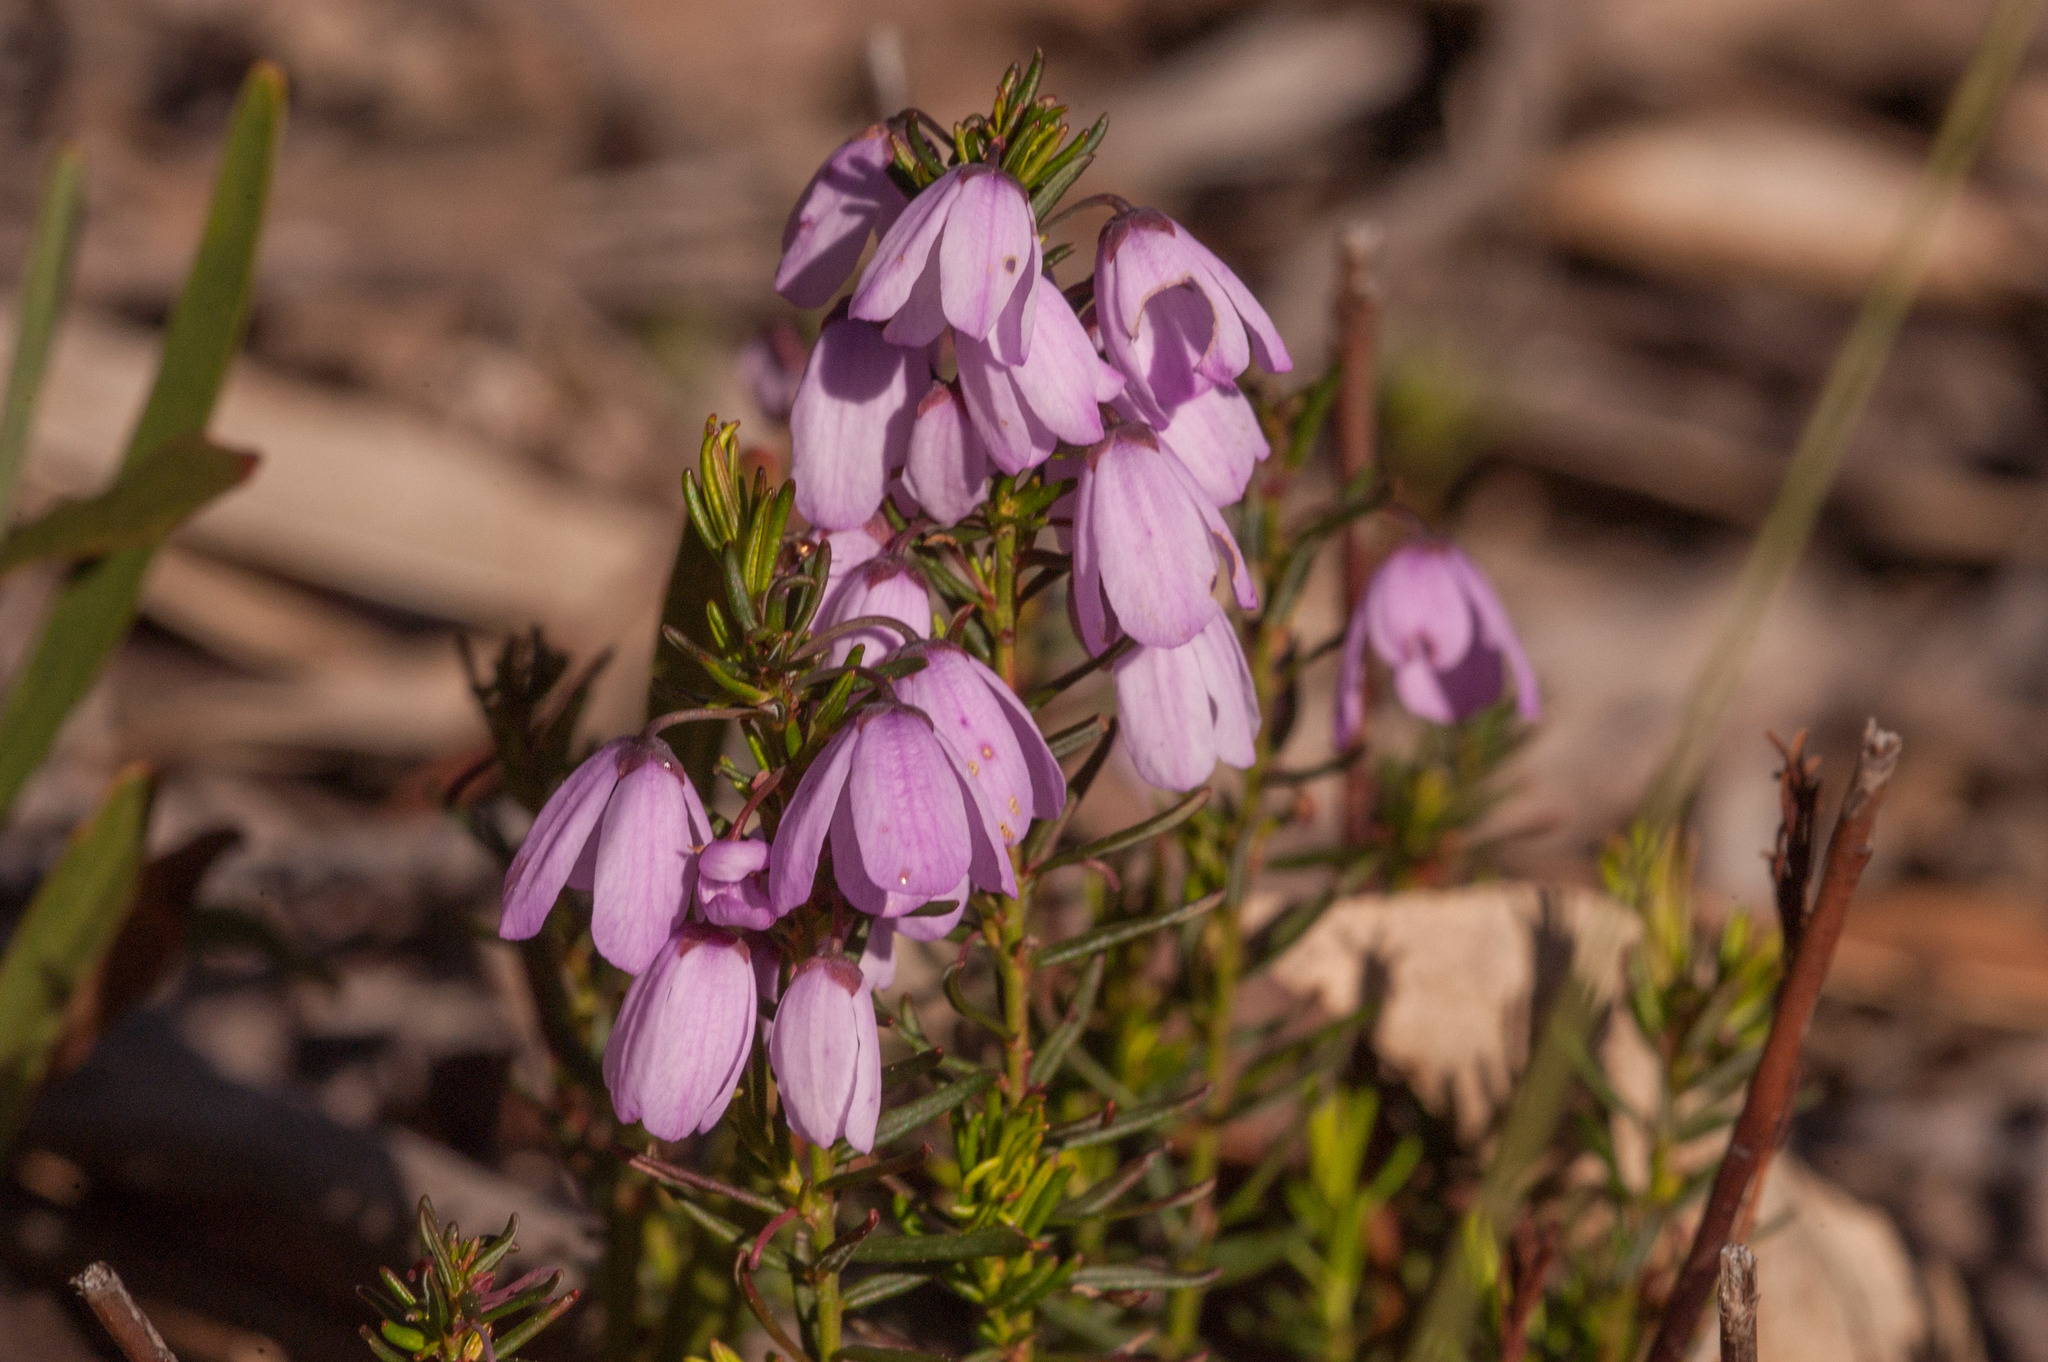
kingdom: Plantae
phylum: Tracheophyta
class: Magnoliopsida
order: Oxalidales
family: Elaeocarpaceae
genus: Tetratheca
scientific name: Tetratheca pilosa
